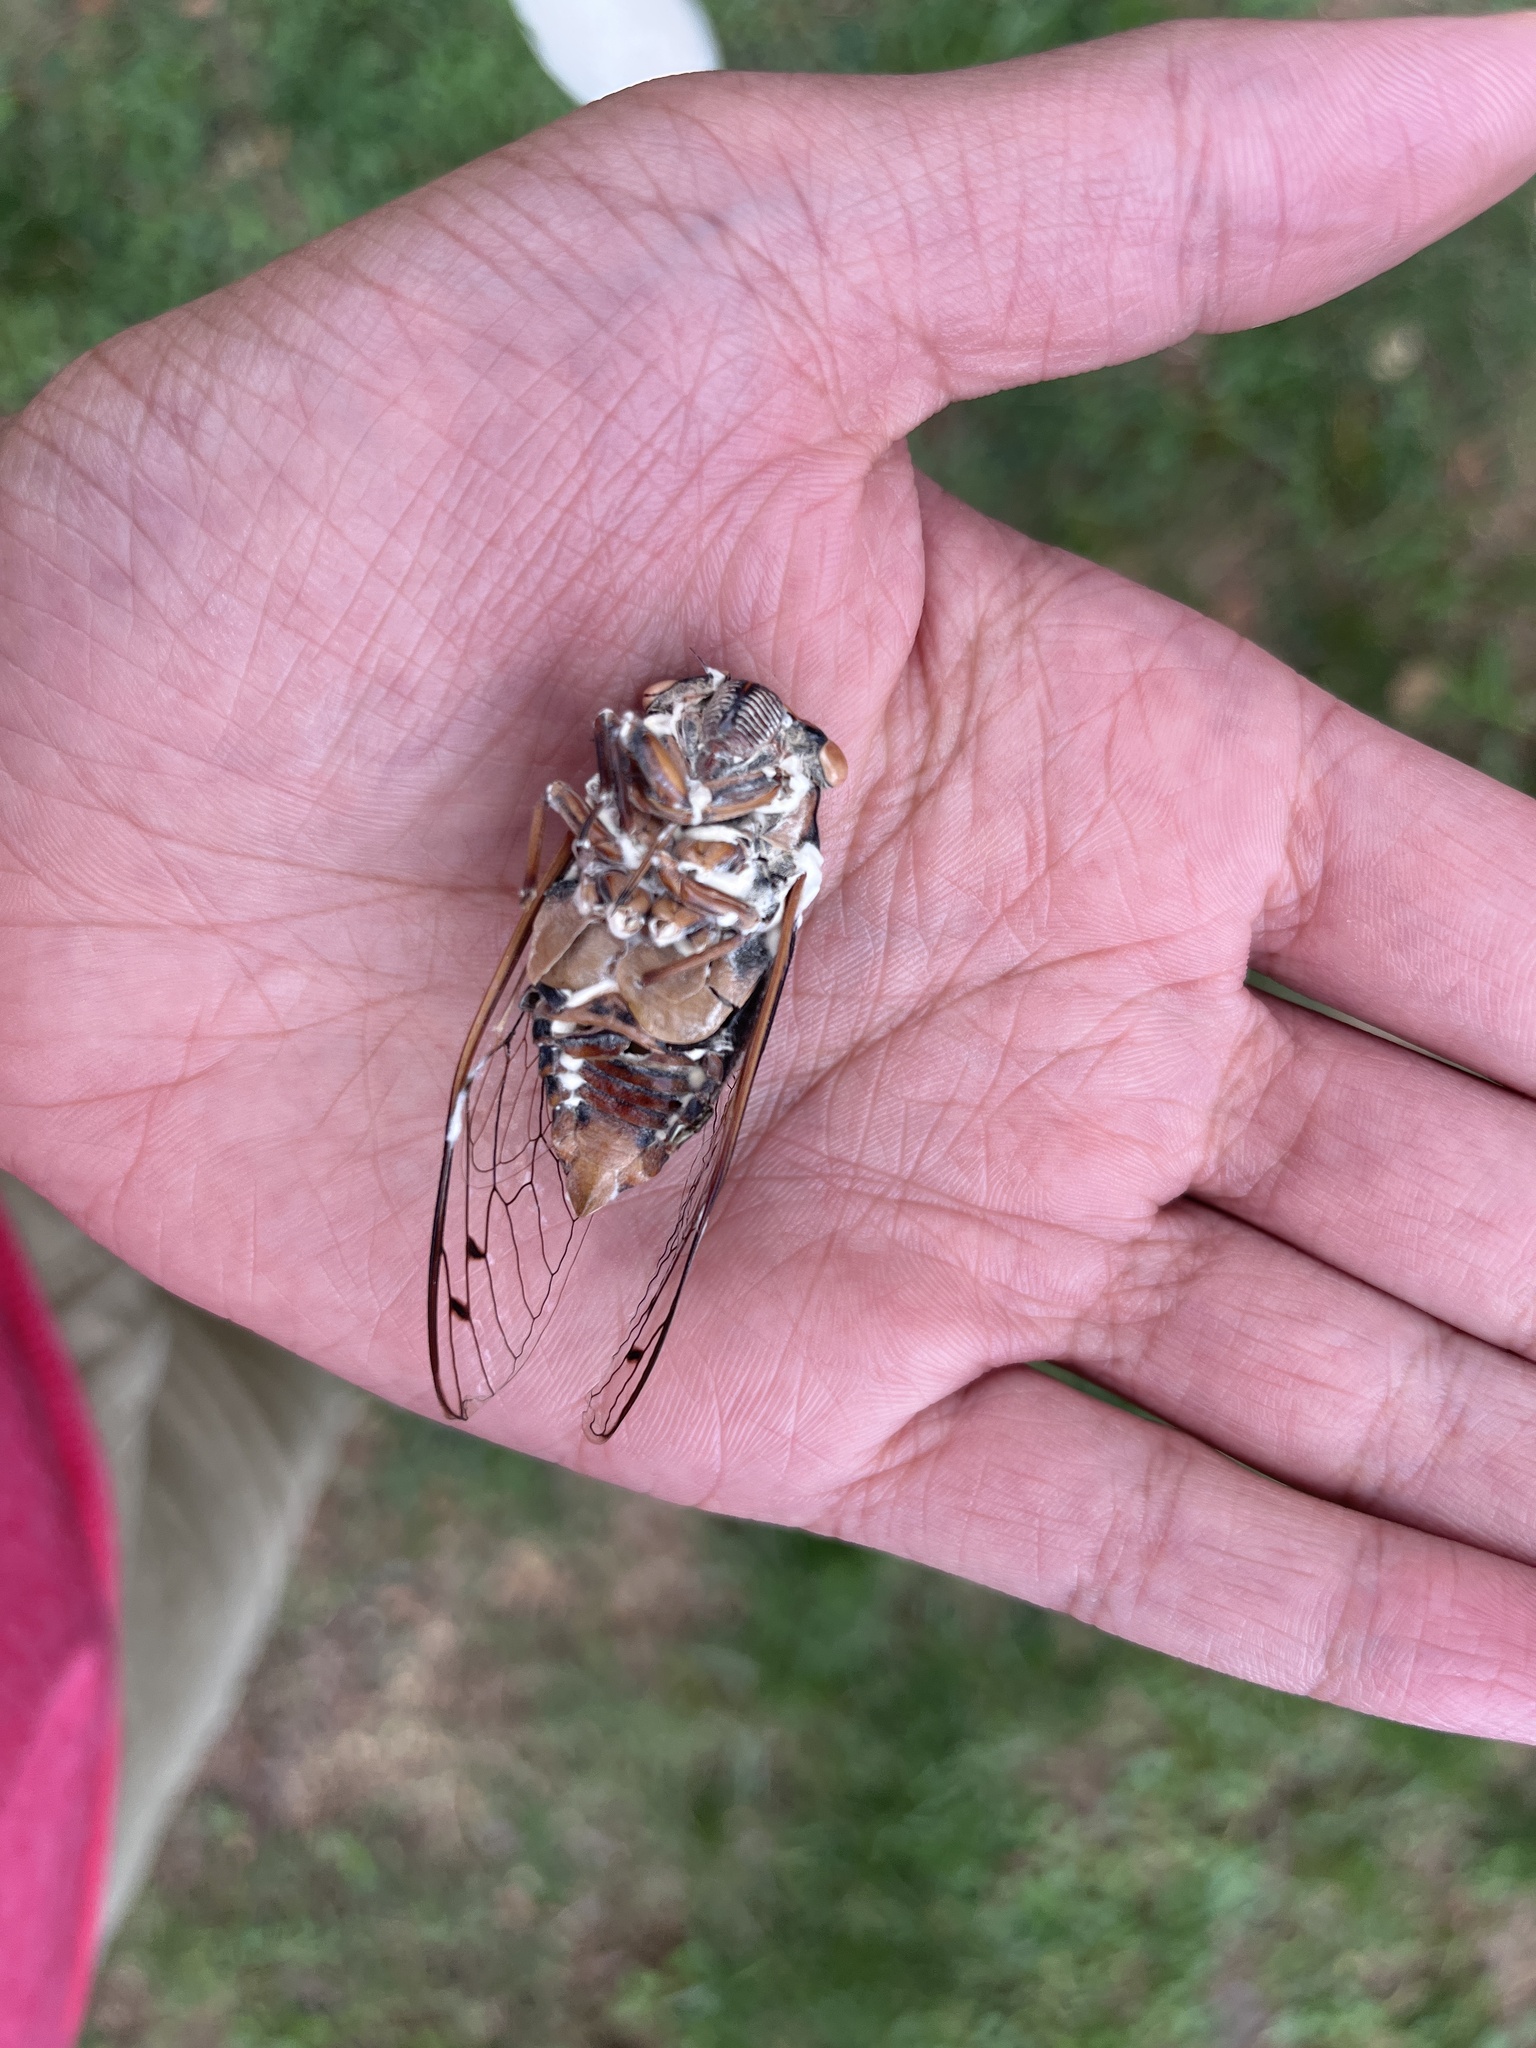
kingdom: Fungi
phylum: Ascomycota
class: Sordariomycetes
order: Hypocreales
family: Cordycipitaceae
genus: Beauveria
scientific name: Beauveria bassiana
